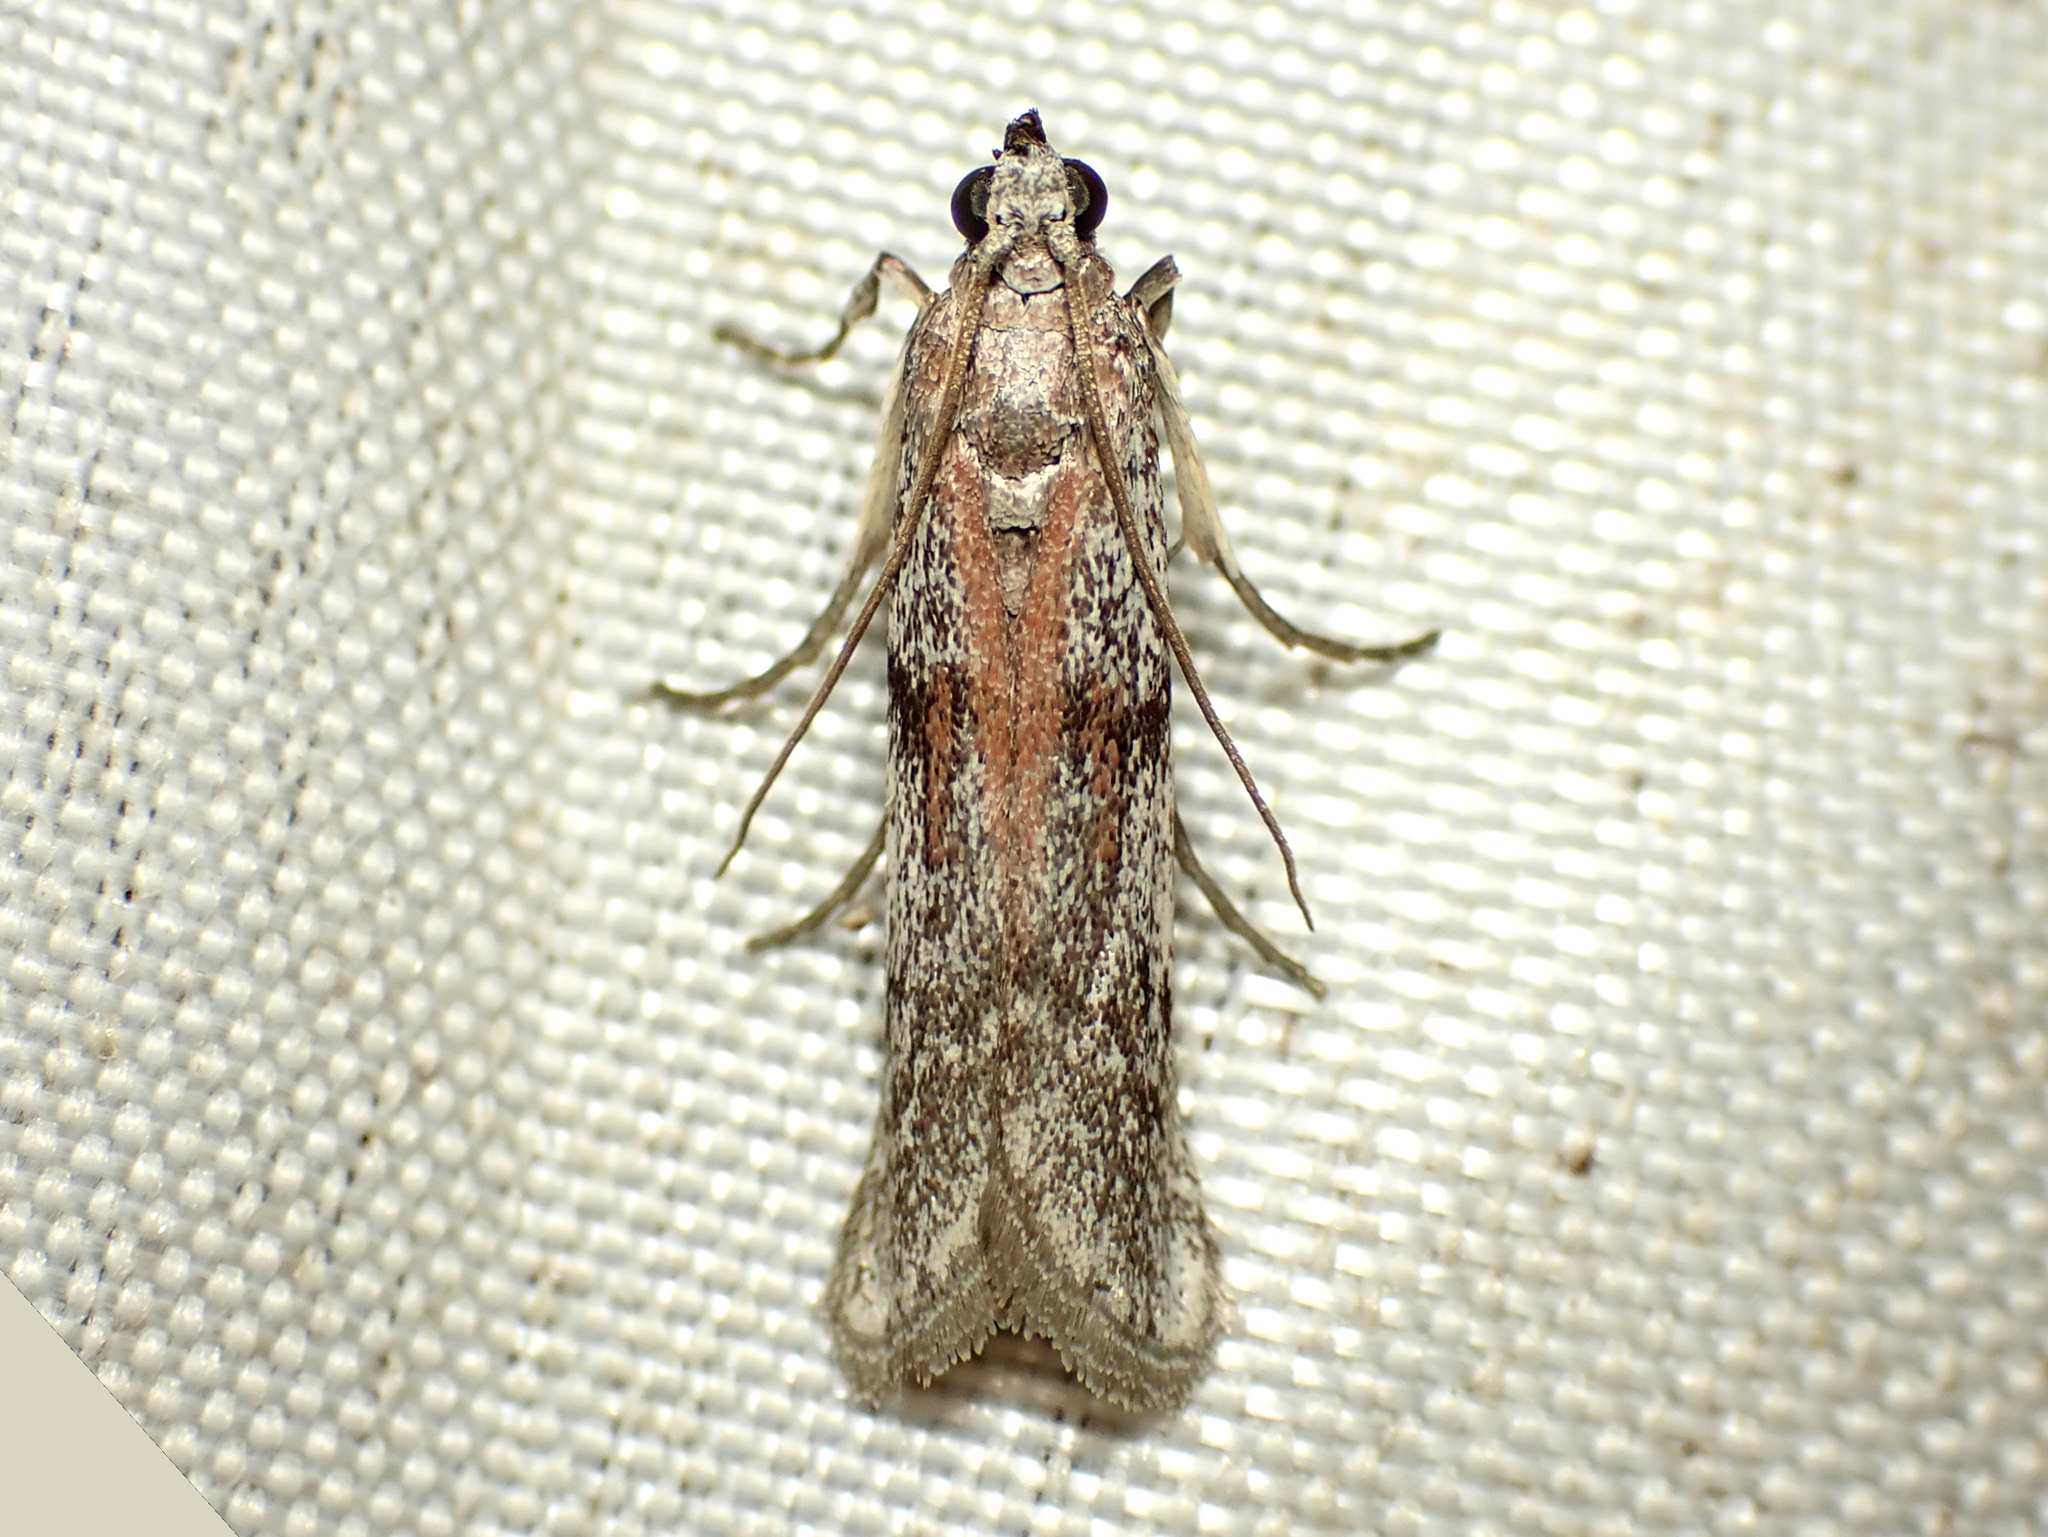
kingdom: Animalia
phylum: Arthropoda
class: Insecta
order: Lepidoptera
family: Pyralidae
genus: Patagoniodes
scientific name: Patagoniodes farinaria
